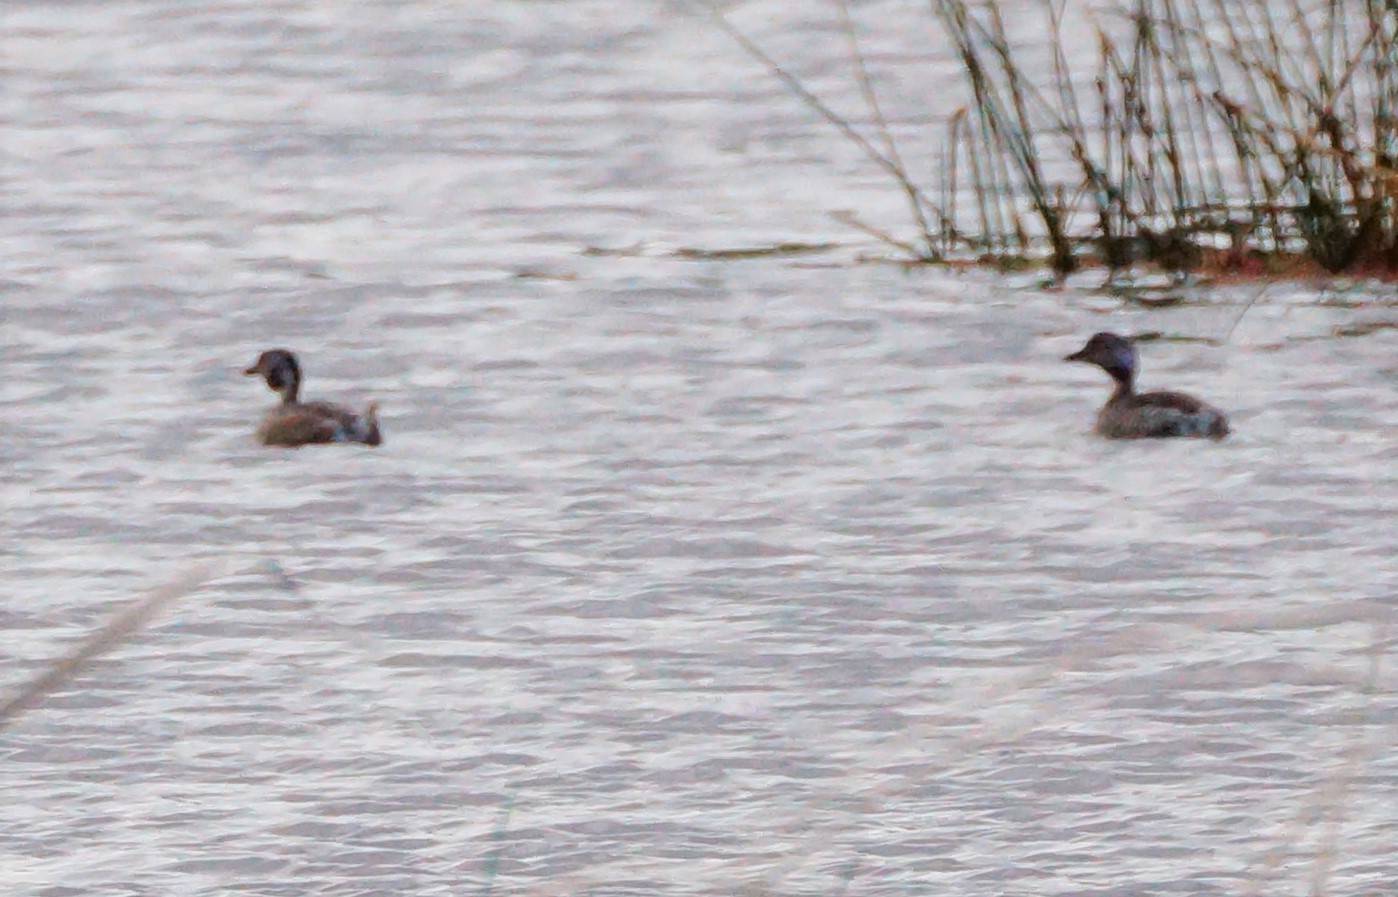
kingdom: Animalia
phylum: Chordata
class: Aves
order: Podicipediformes
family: Podicipedidae
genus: Tachybaptus
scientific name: Tachybaptus novaehollandiae
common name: Australasian grebe
